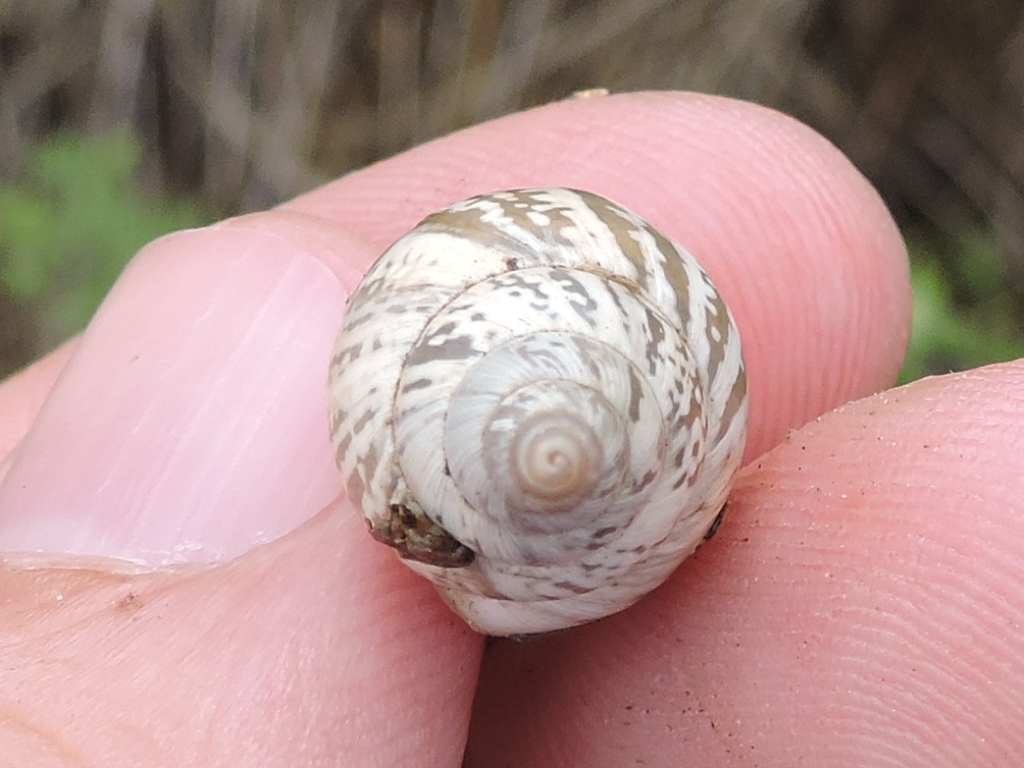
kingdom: Animalia
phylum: Mollusca
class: Gastropoda
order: Stylommatophora
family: Bulimulidae
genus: Rabdotus
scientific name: Rabdotus dealbatus
